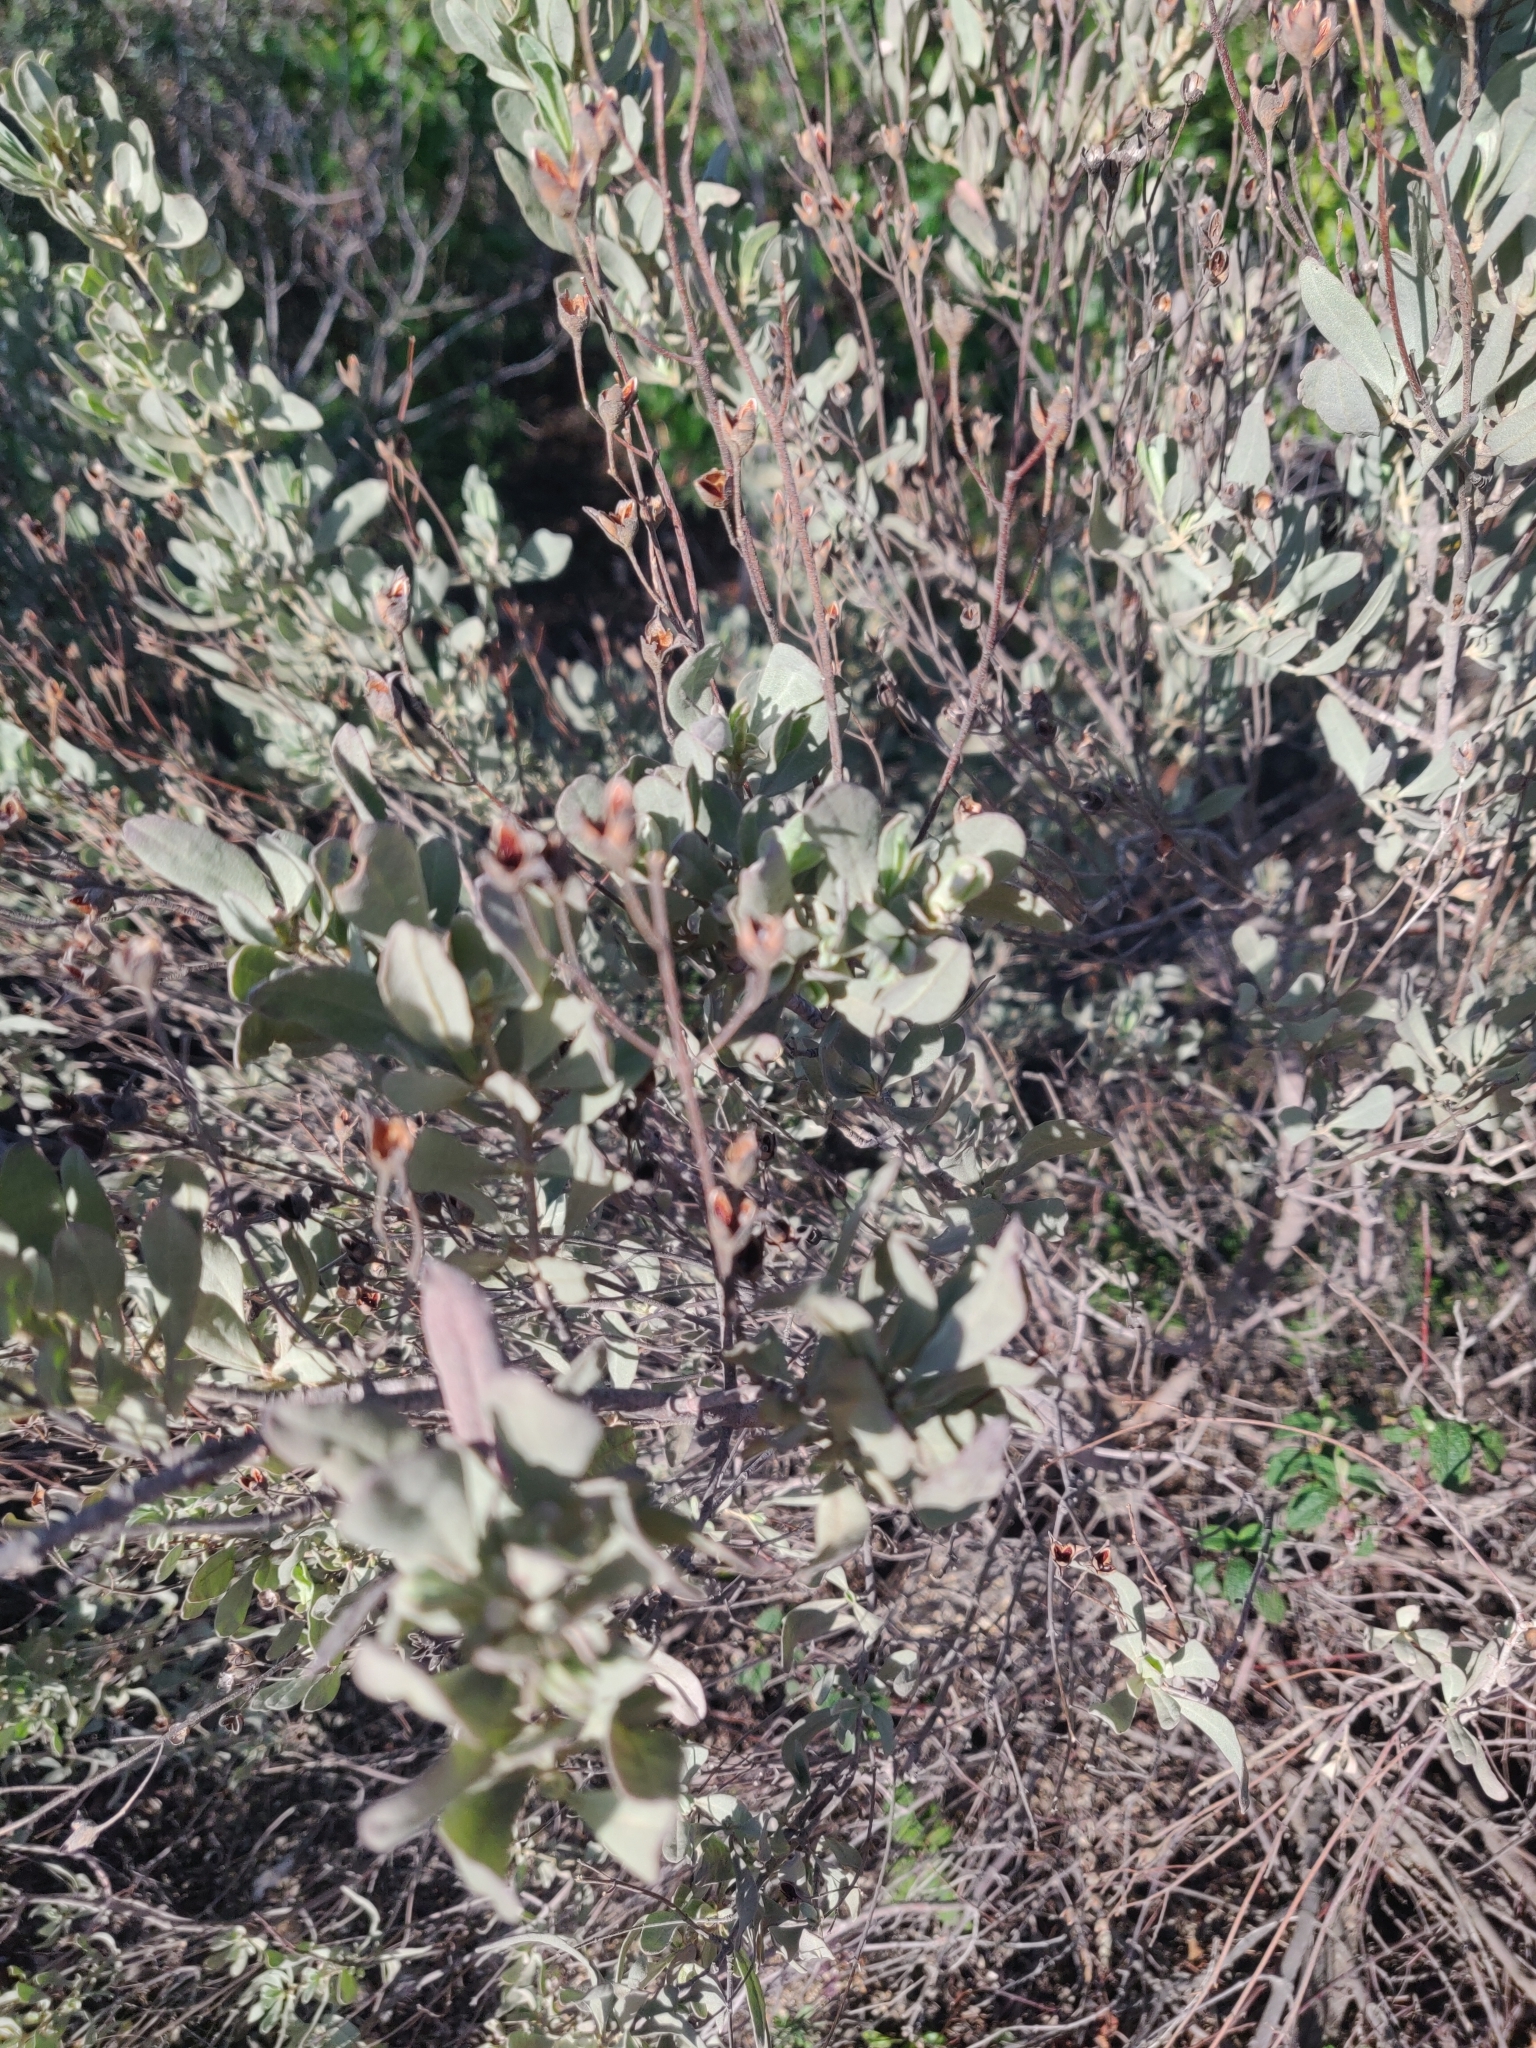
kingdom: Plantae
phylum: Tracheophyta
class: Magnoliopsida
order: Malvales
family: Cistaceae
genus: Halimium
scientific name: Halimium halimifolium
